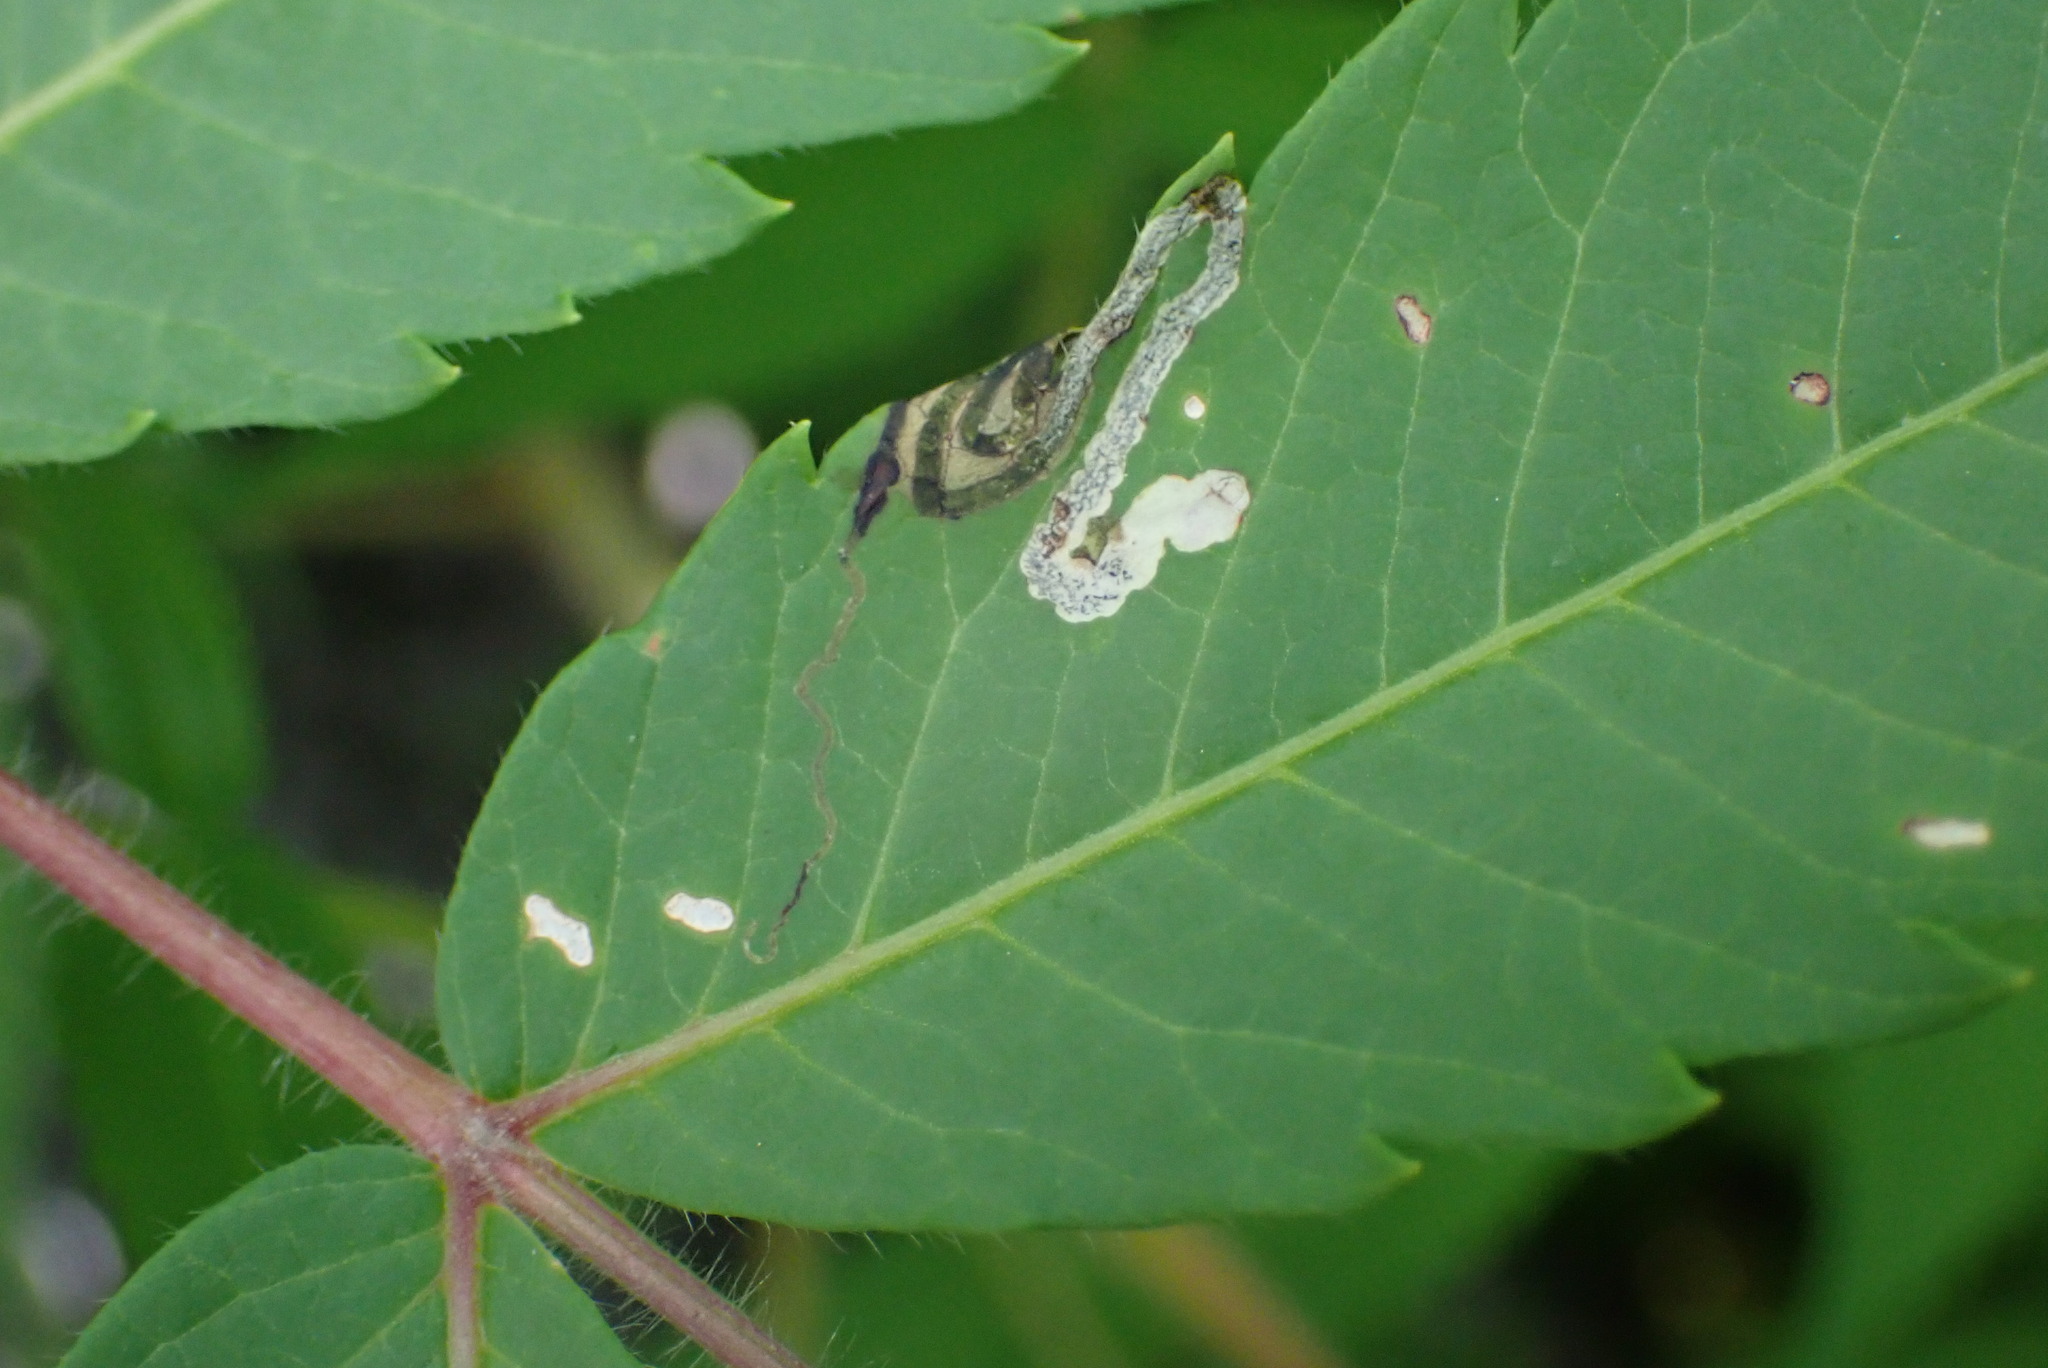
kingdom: Animalia
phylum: Arthropoda
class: Insecta
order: Lepidoptera
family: Nepticulidae
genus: Stigmella
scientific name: Stigmella intermedia
